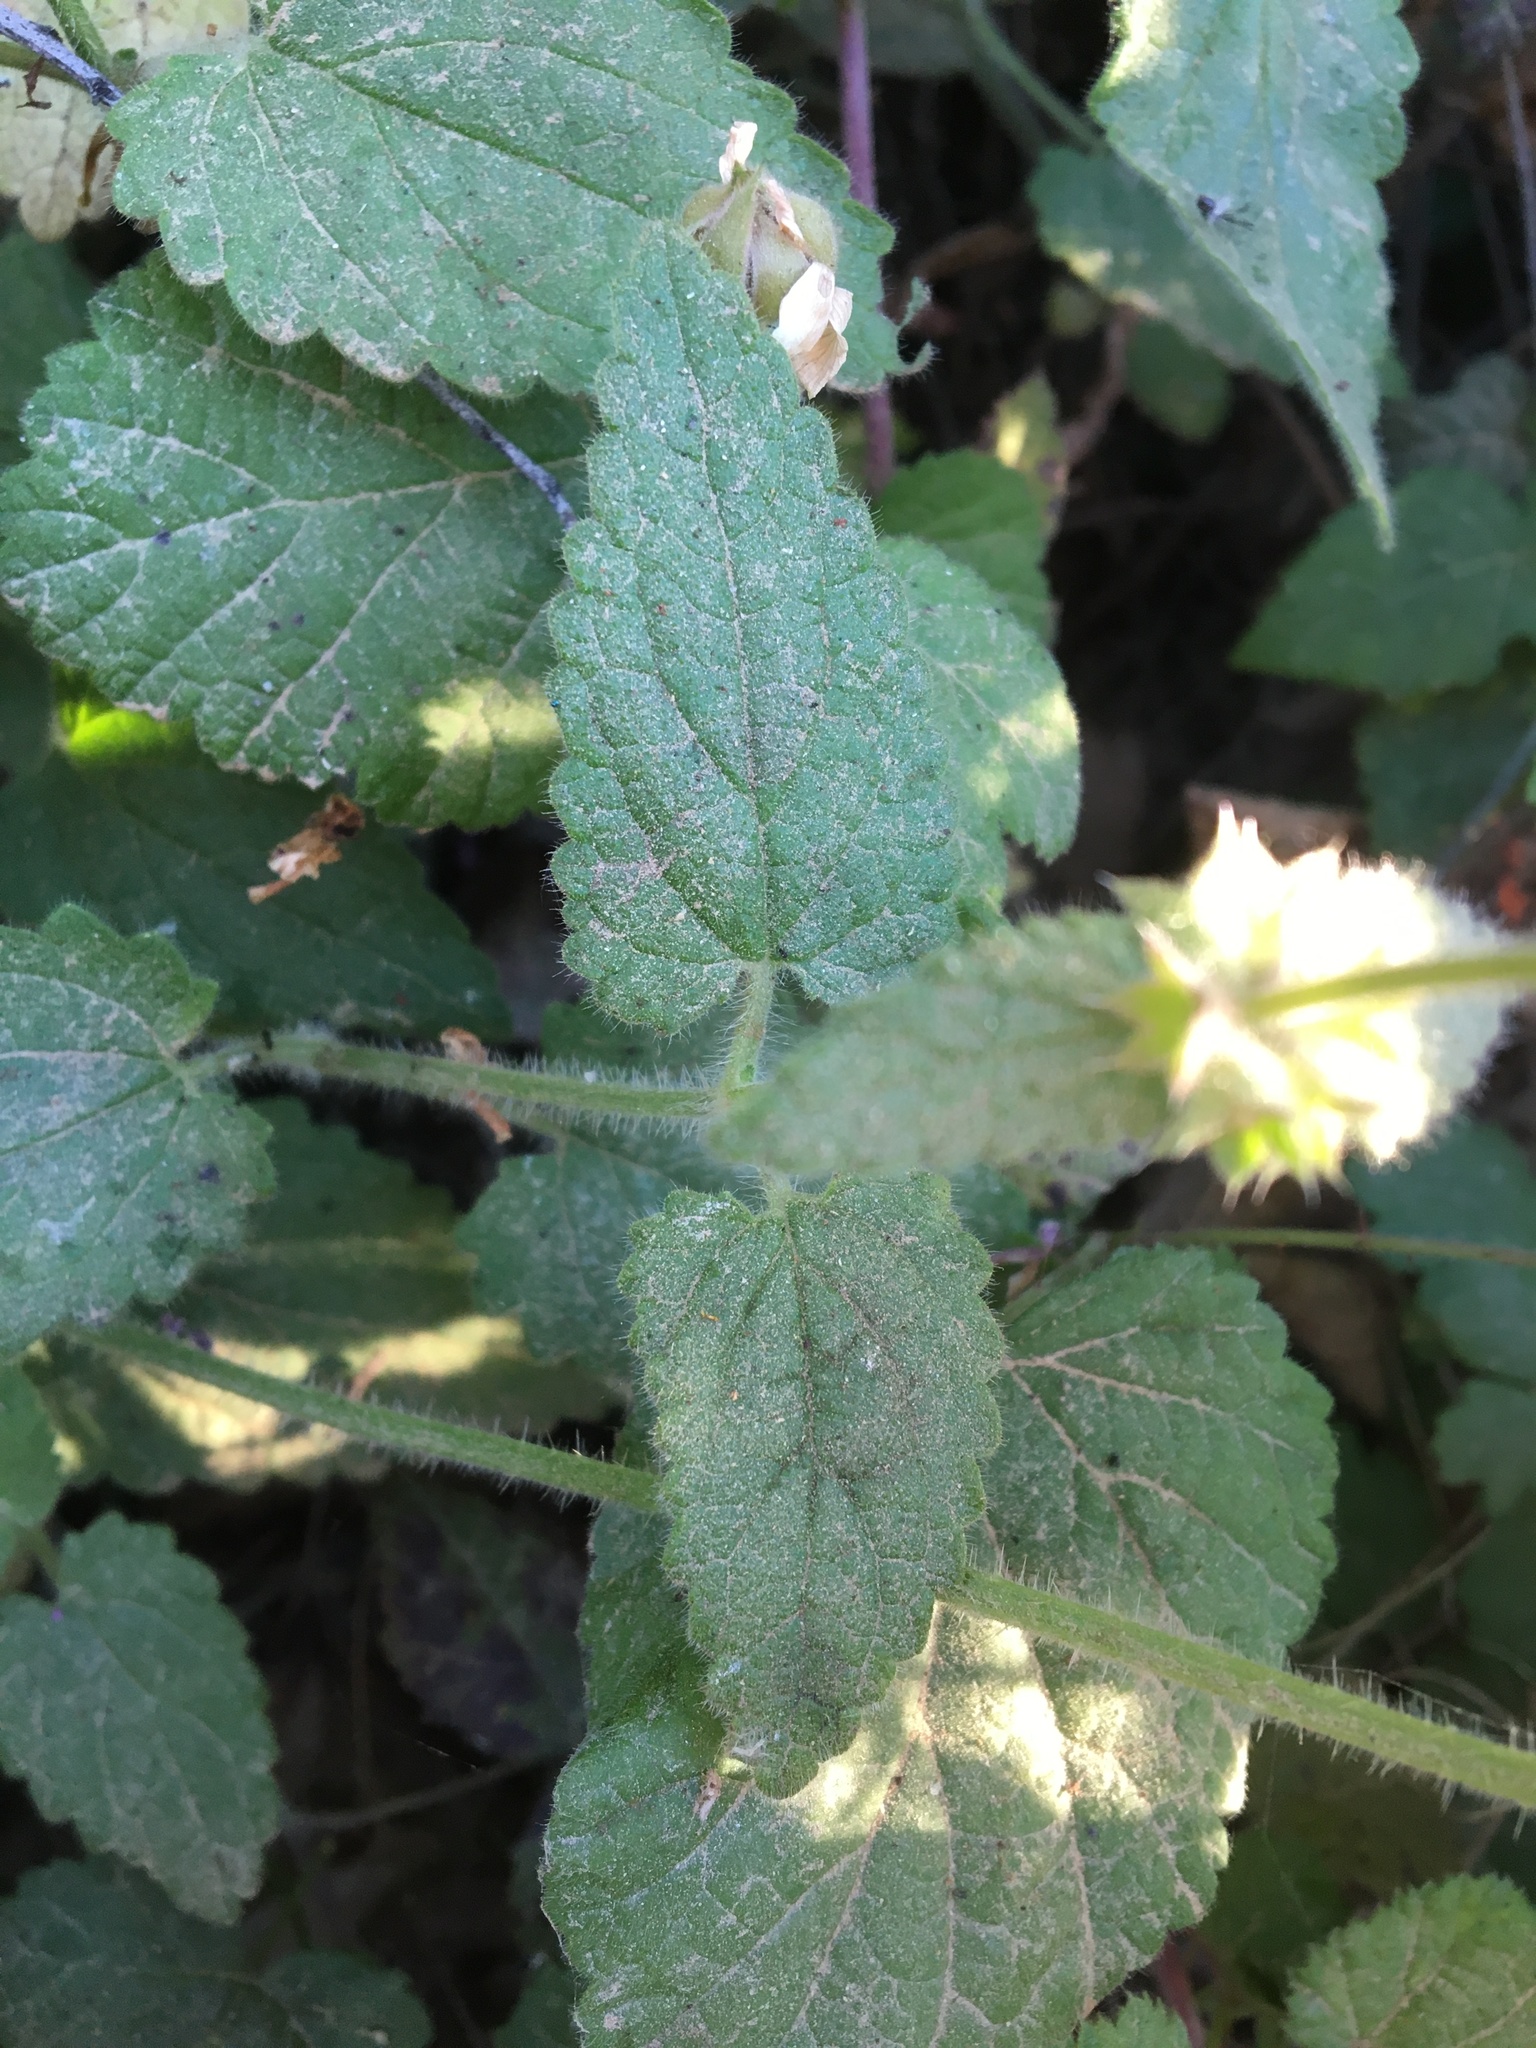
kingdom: Plantae
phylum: Tracheophyta
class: Magnoliopsida
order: Lamiales
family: Lamiaceae
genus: Stachys
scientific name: Stachys bullata
